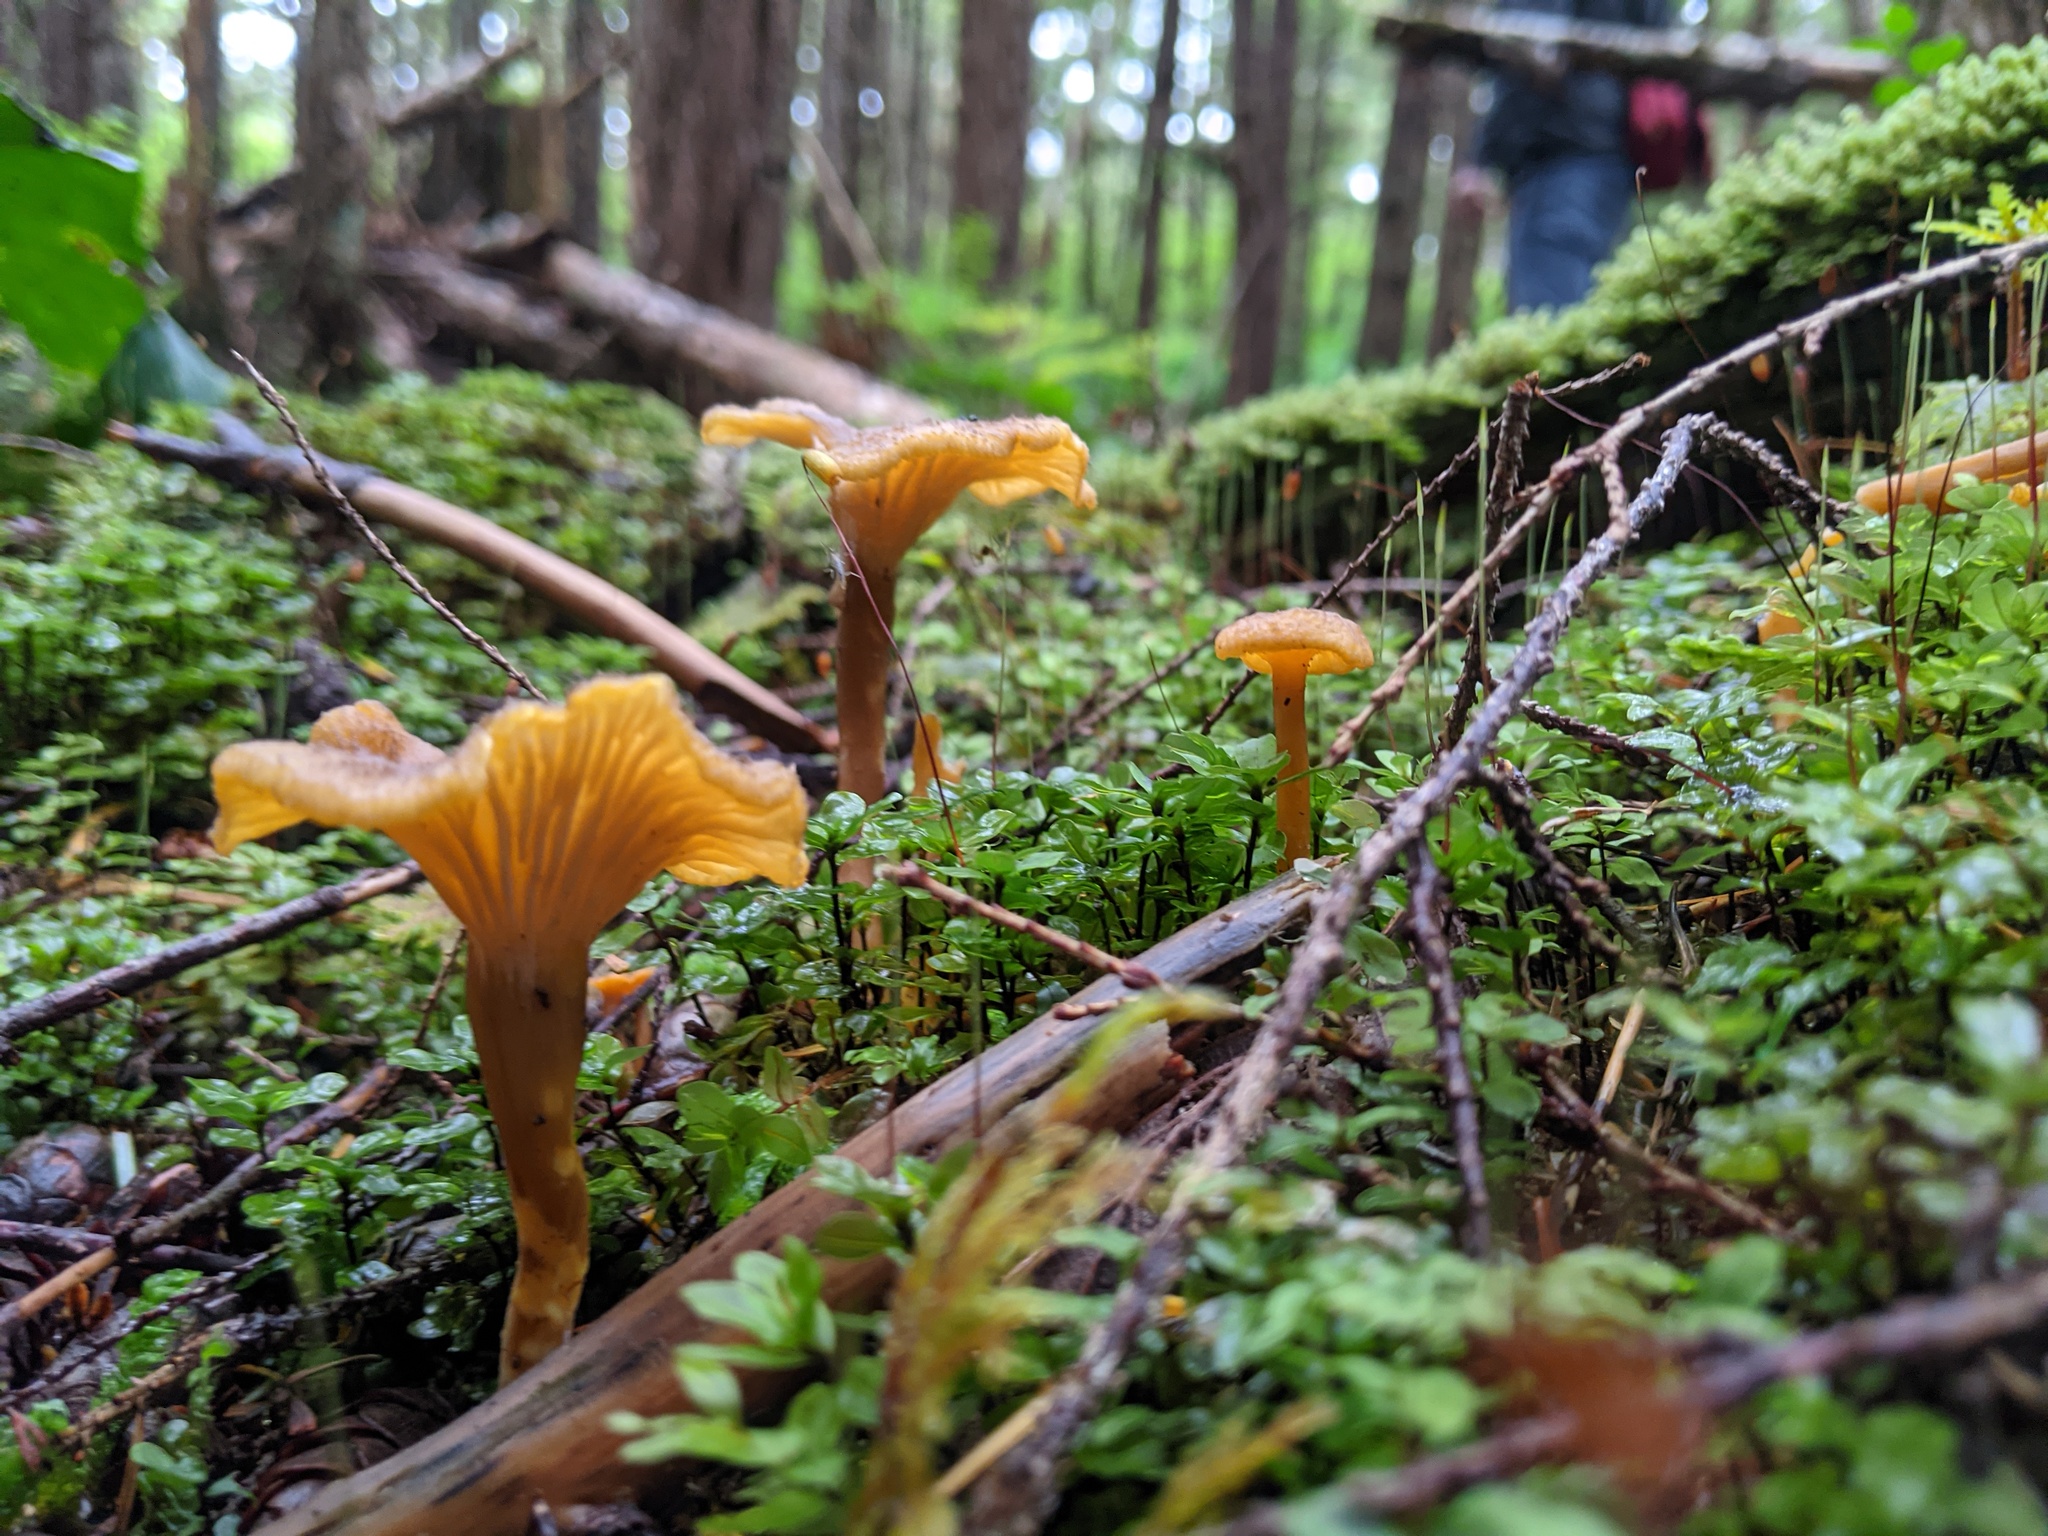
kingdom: Fungi
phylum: Basidiomycota
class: Agaricomycetes
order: Cantharellales
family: Hydnaceae
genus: Craterellus
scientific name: Craterellus tubaeformis
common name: Yellowfoot
